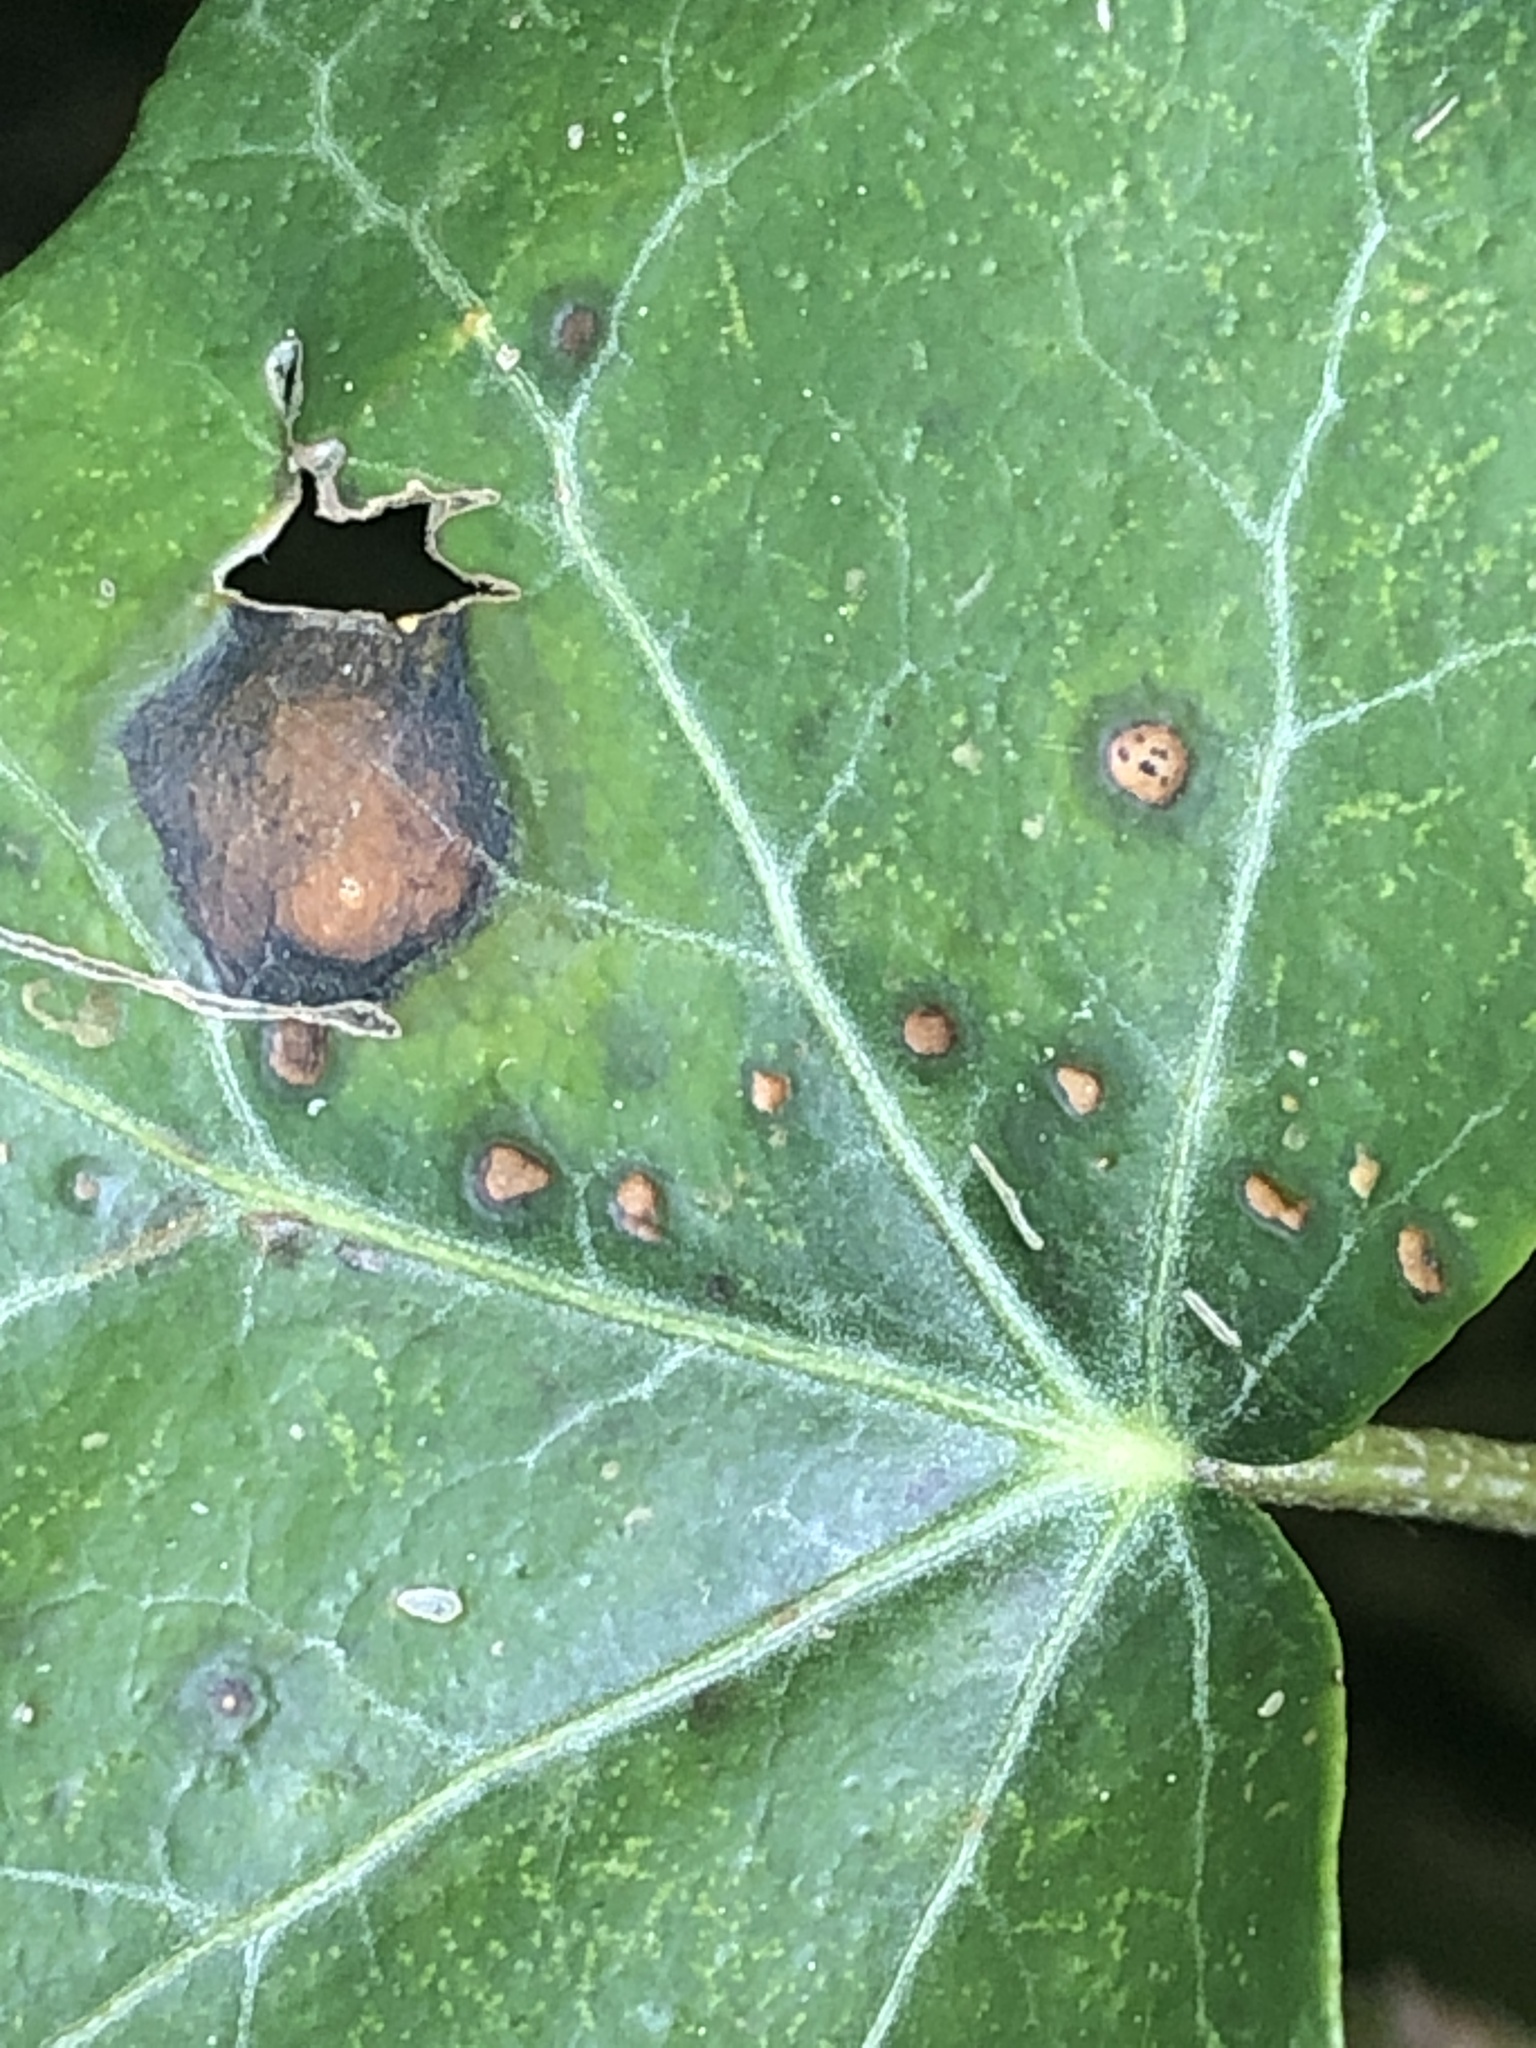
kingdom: Fungi
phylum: Ascomycota
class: Dothideomycetes
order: Pleosporales
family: Didymellaceae
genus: Boeremia
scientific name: Boeremia hedericola
